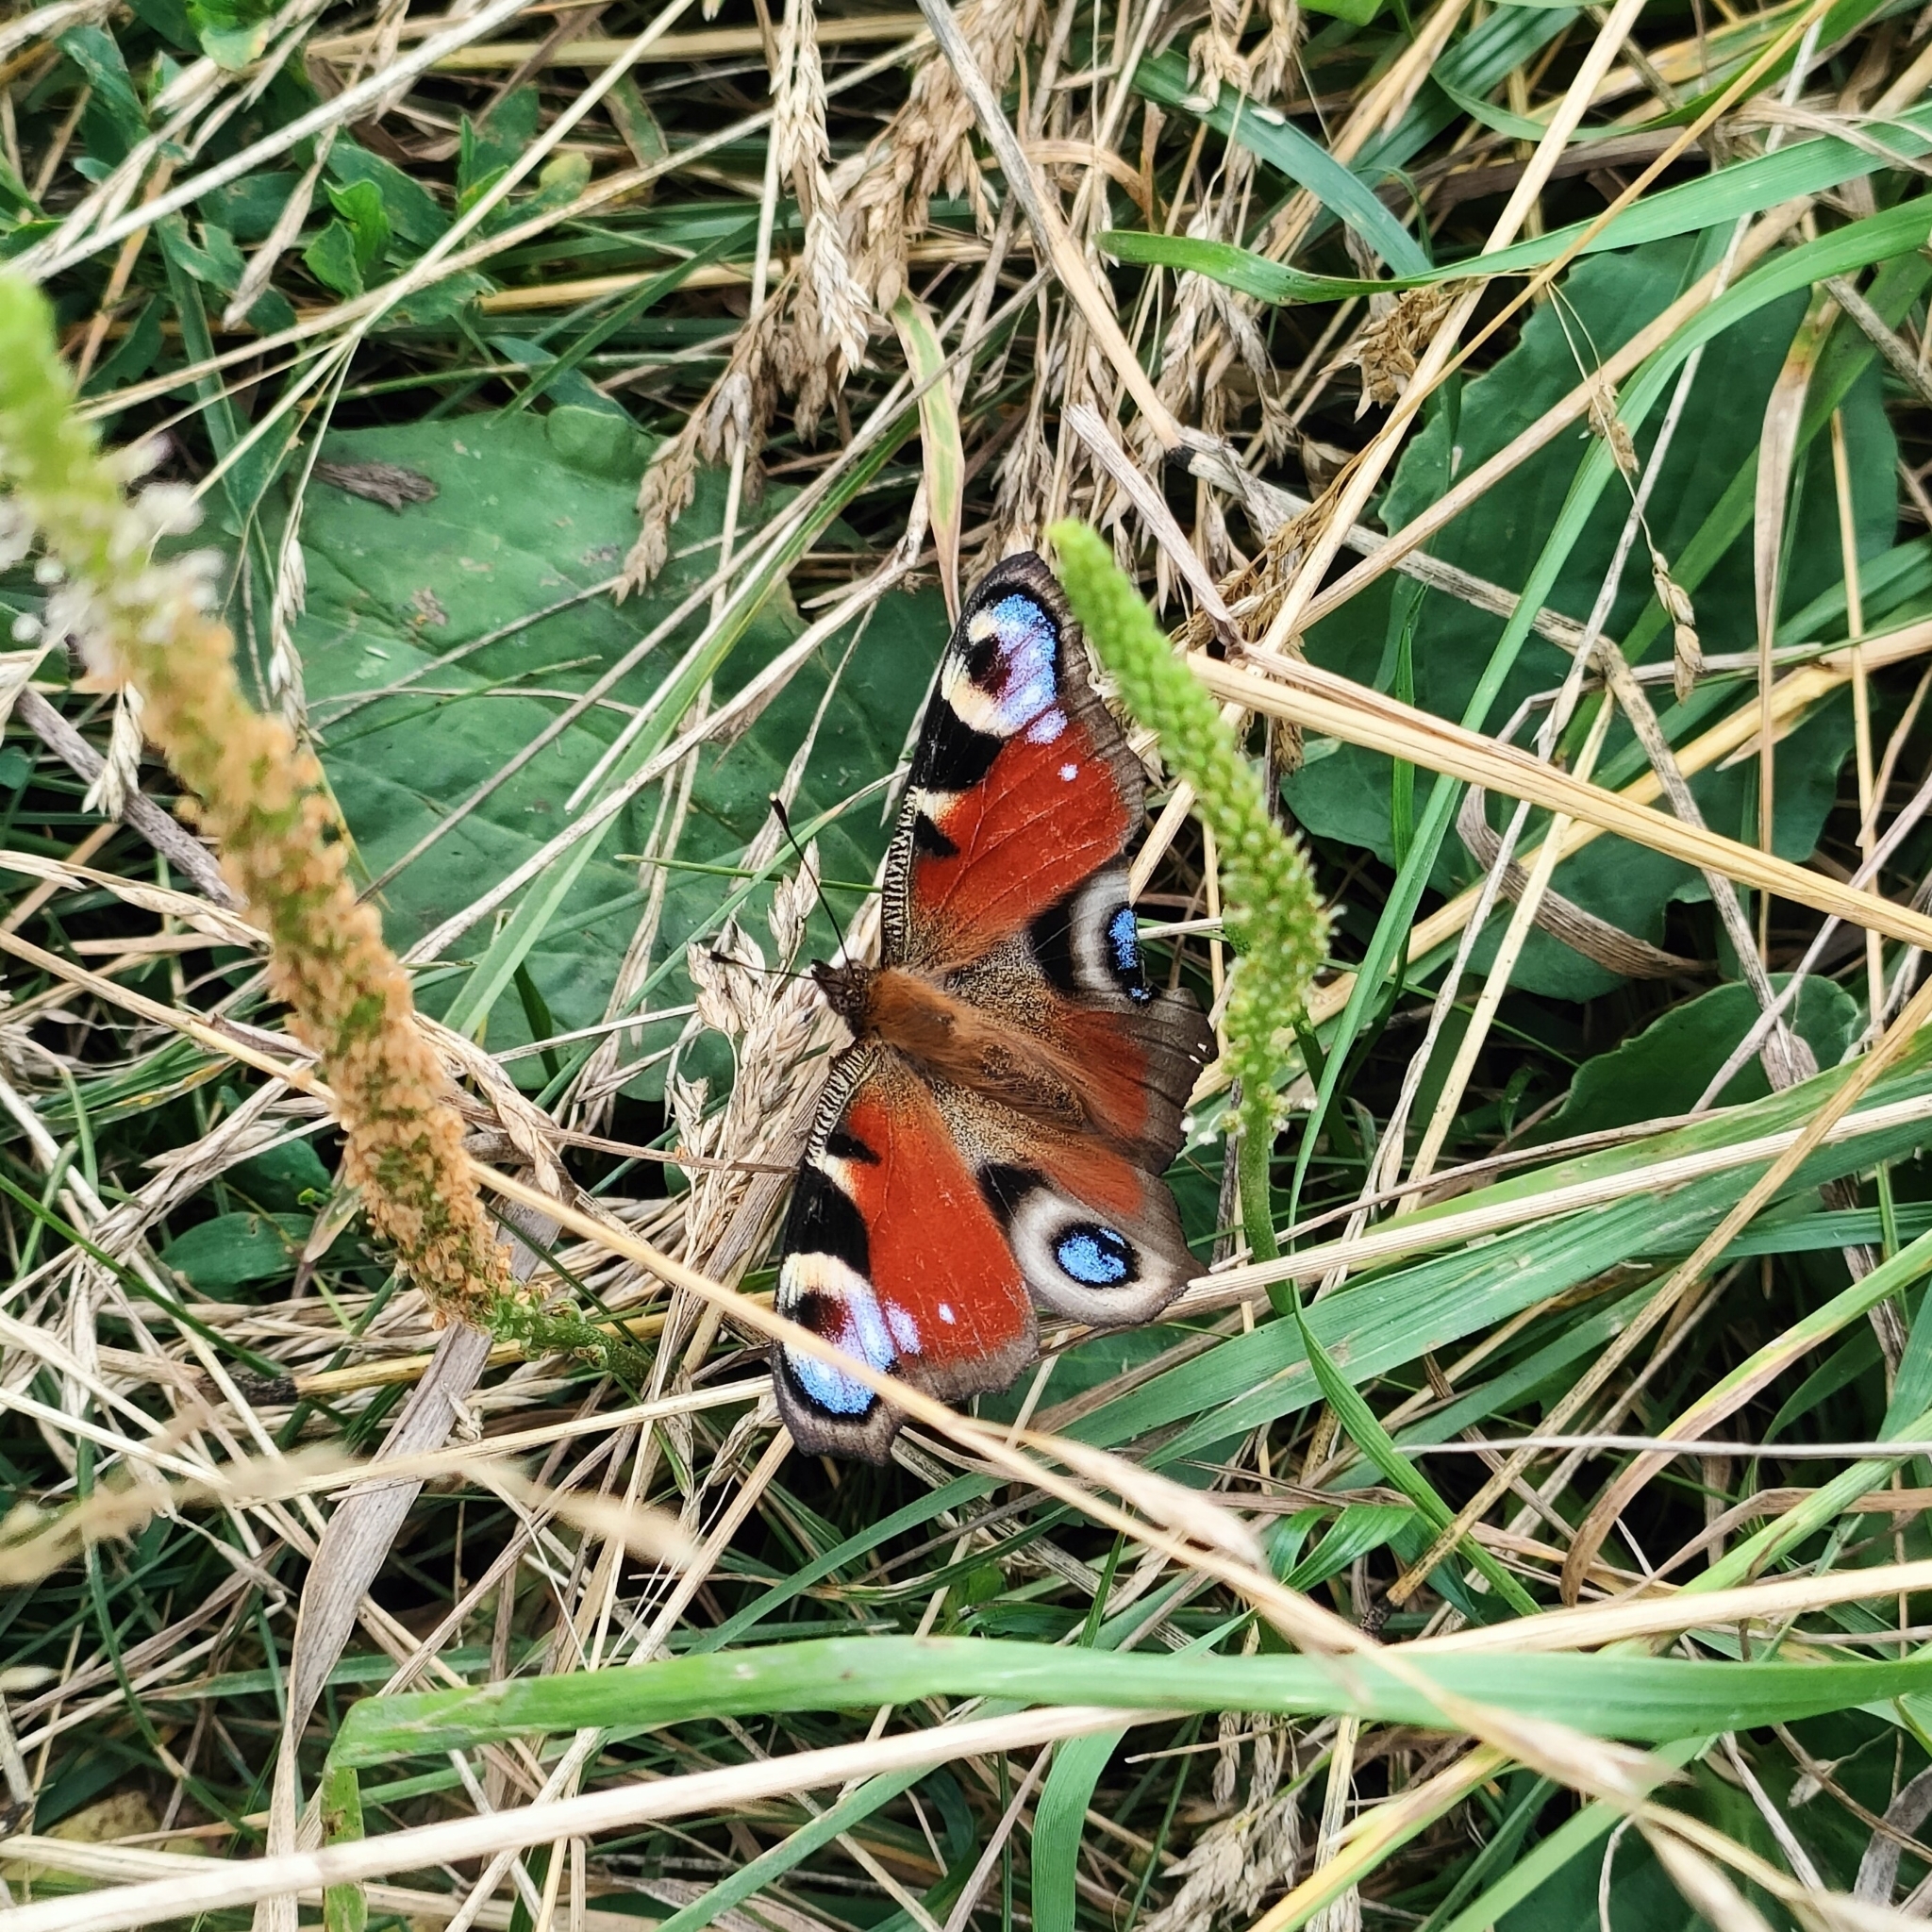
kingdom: Animalia
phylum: Arthropoda
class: Insecta
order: Lepidoptera
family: Nymphalidae
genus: Aglais
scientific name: Aglais io
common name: Peacock
